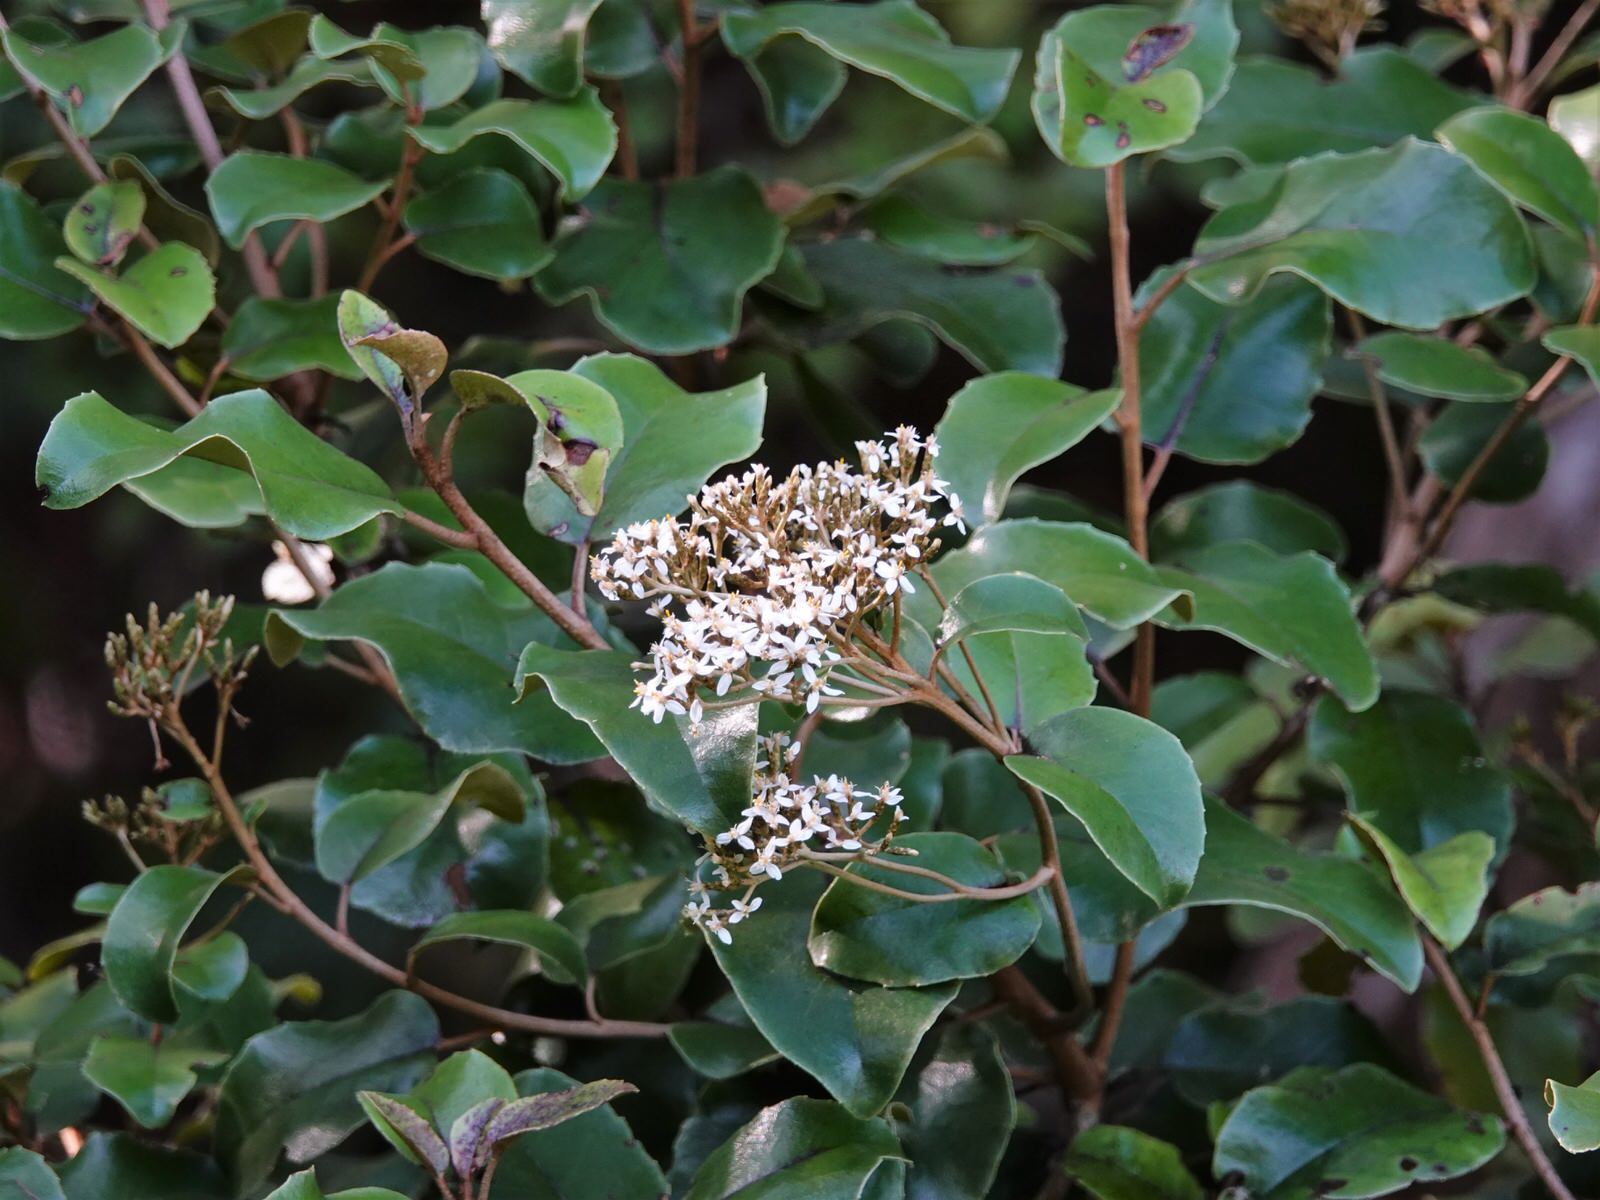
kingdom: Plantae
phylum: Tracheophyta
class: Magnoliopsida
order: Asterales
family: Asteraceae
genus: Olearia
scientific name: Olearia furfuracea
